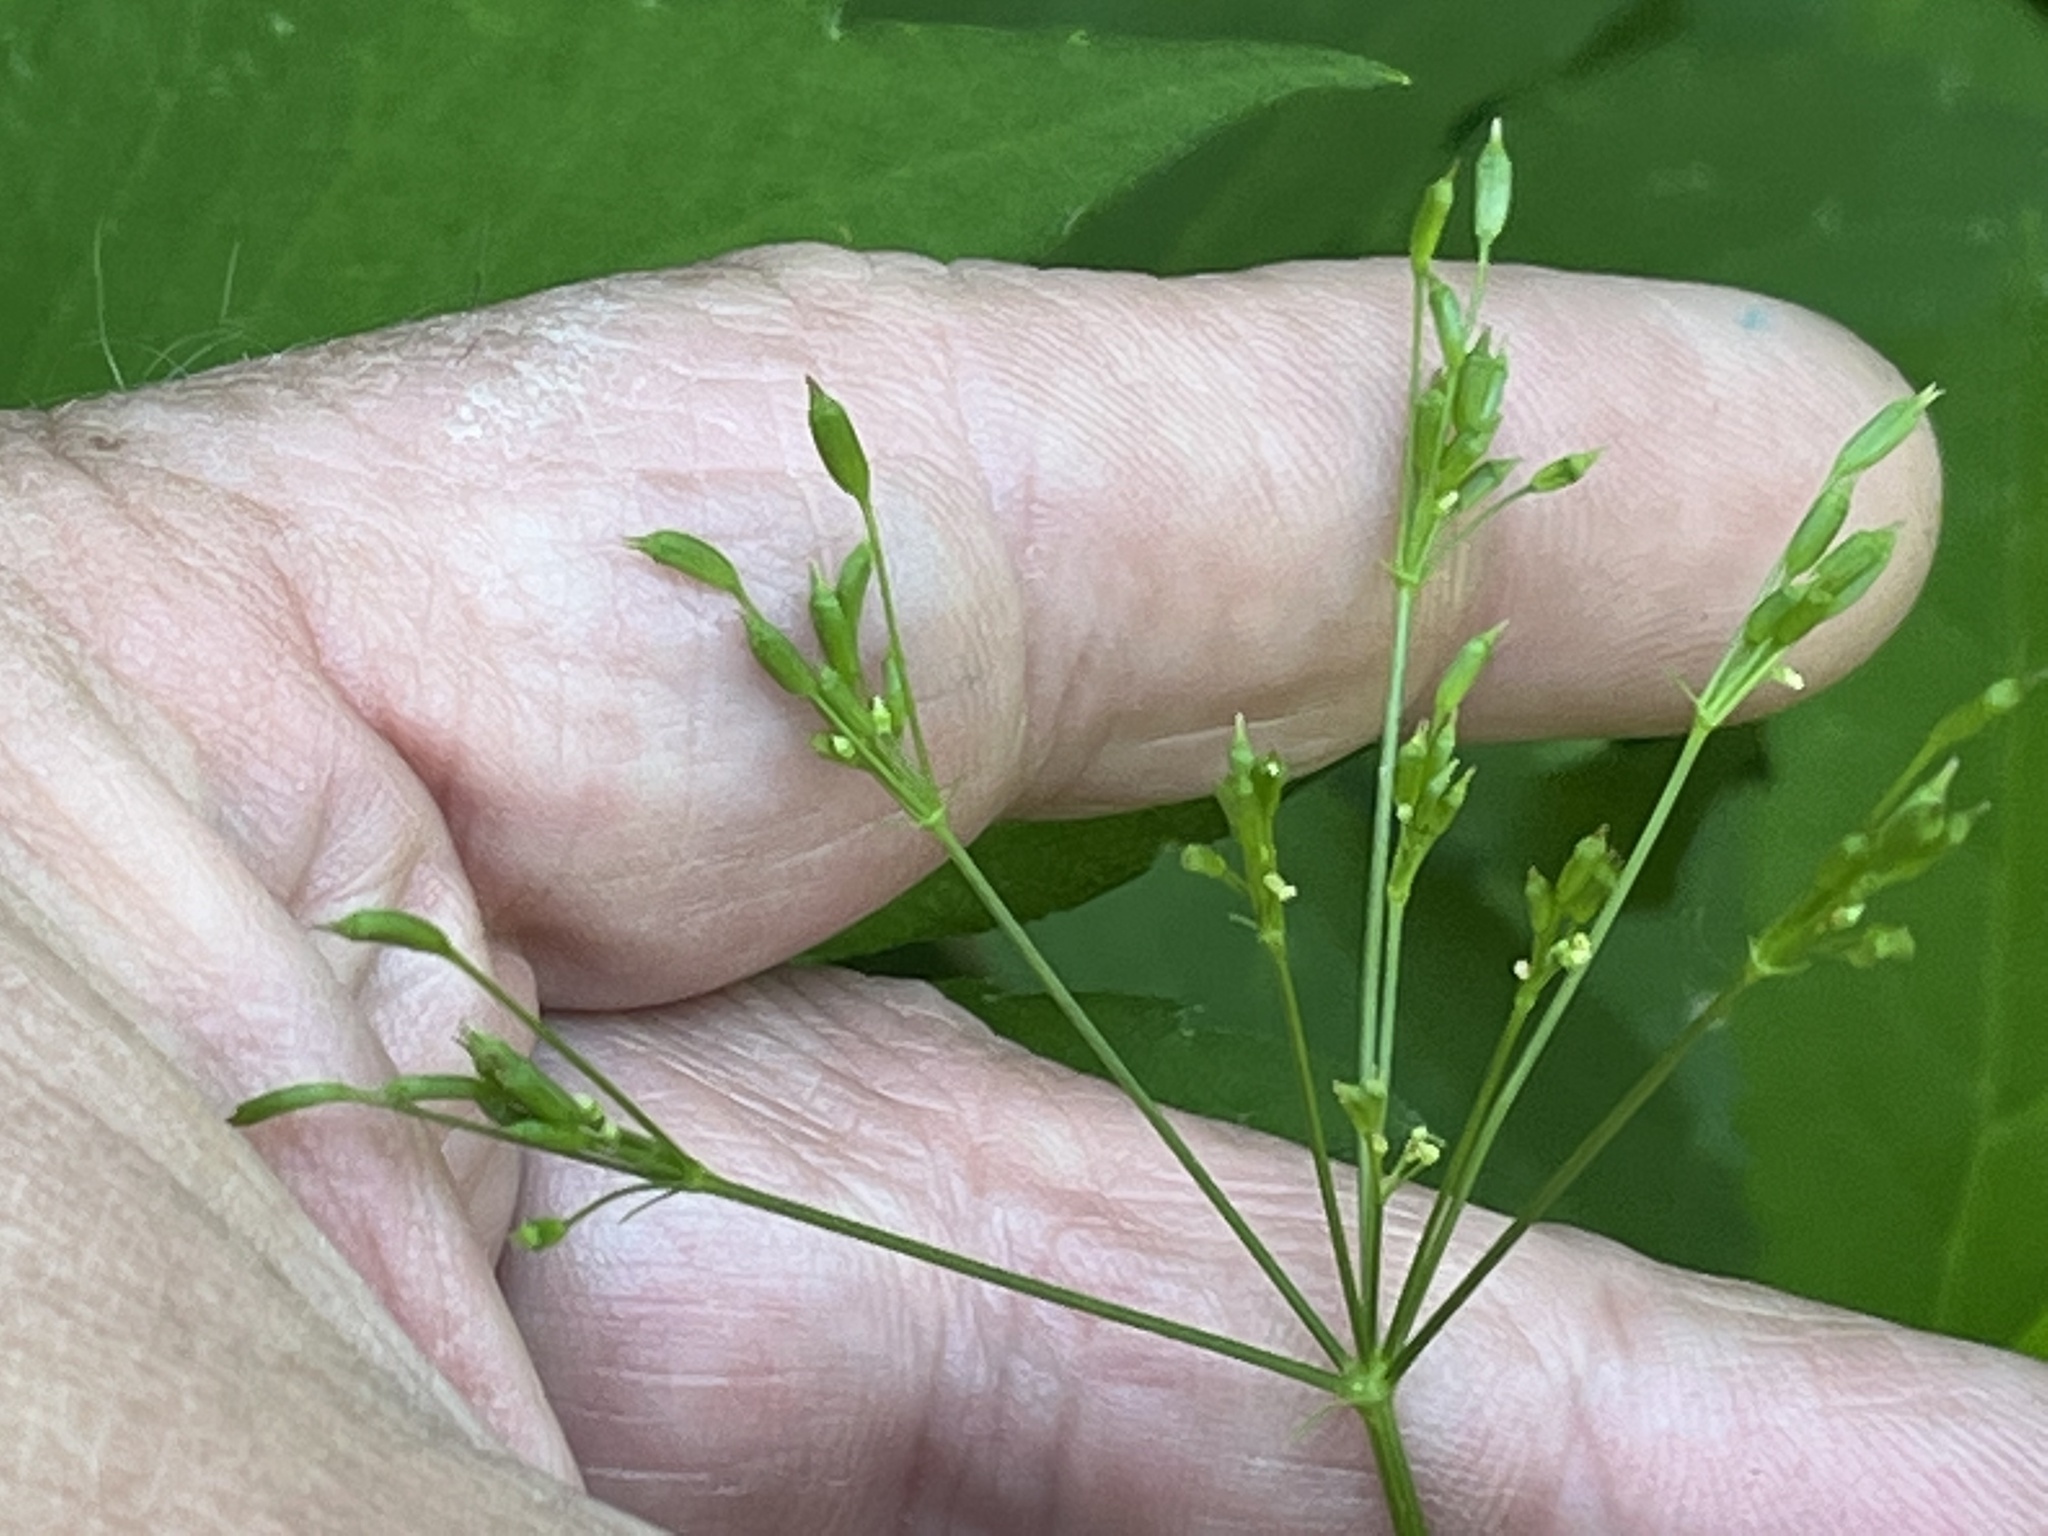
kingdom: Plantae
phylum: Tracheophyta
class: Magnoliopsida
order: Apiales
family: Apiaceae
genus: Cryptotaenia
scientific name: Cryptotaenia canadensis
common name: Honewort
